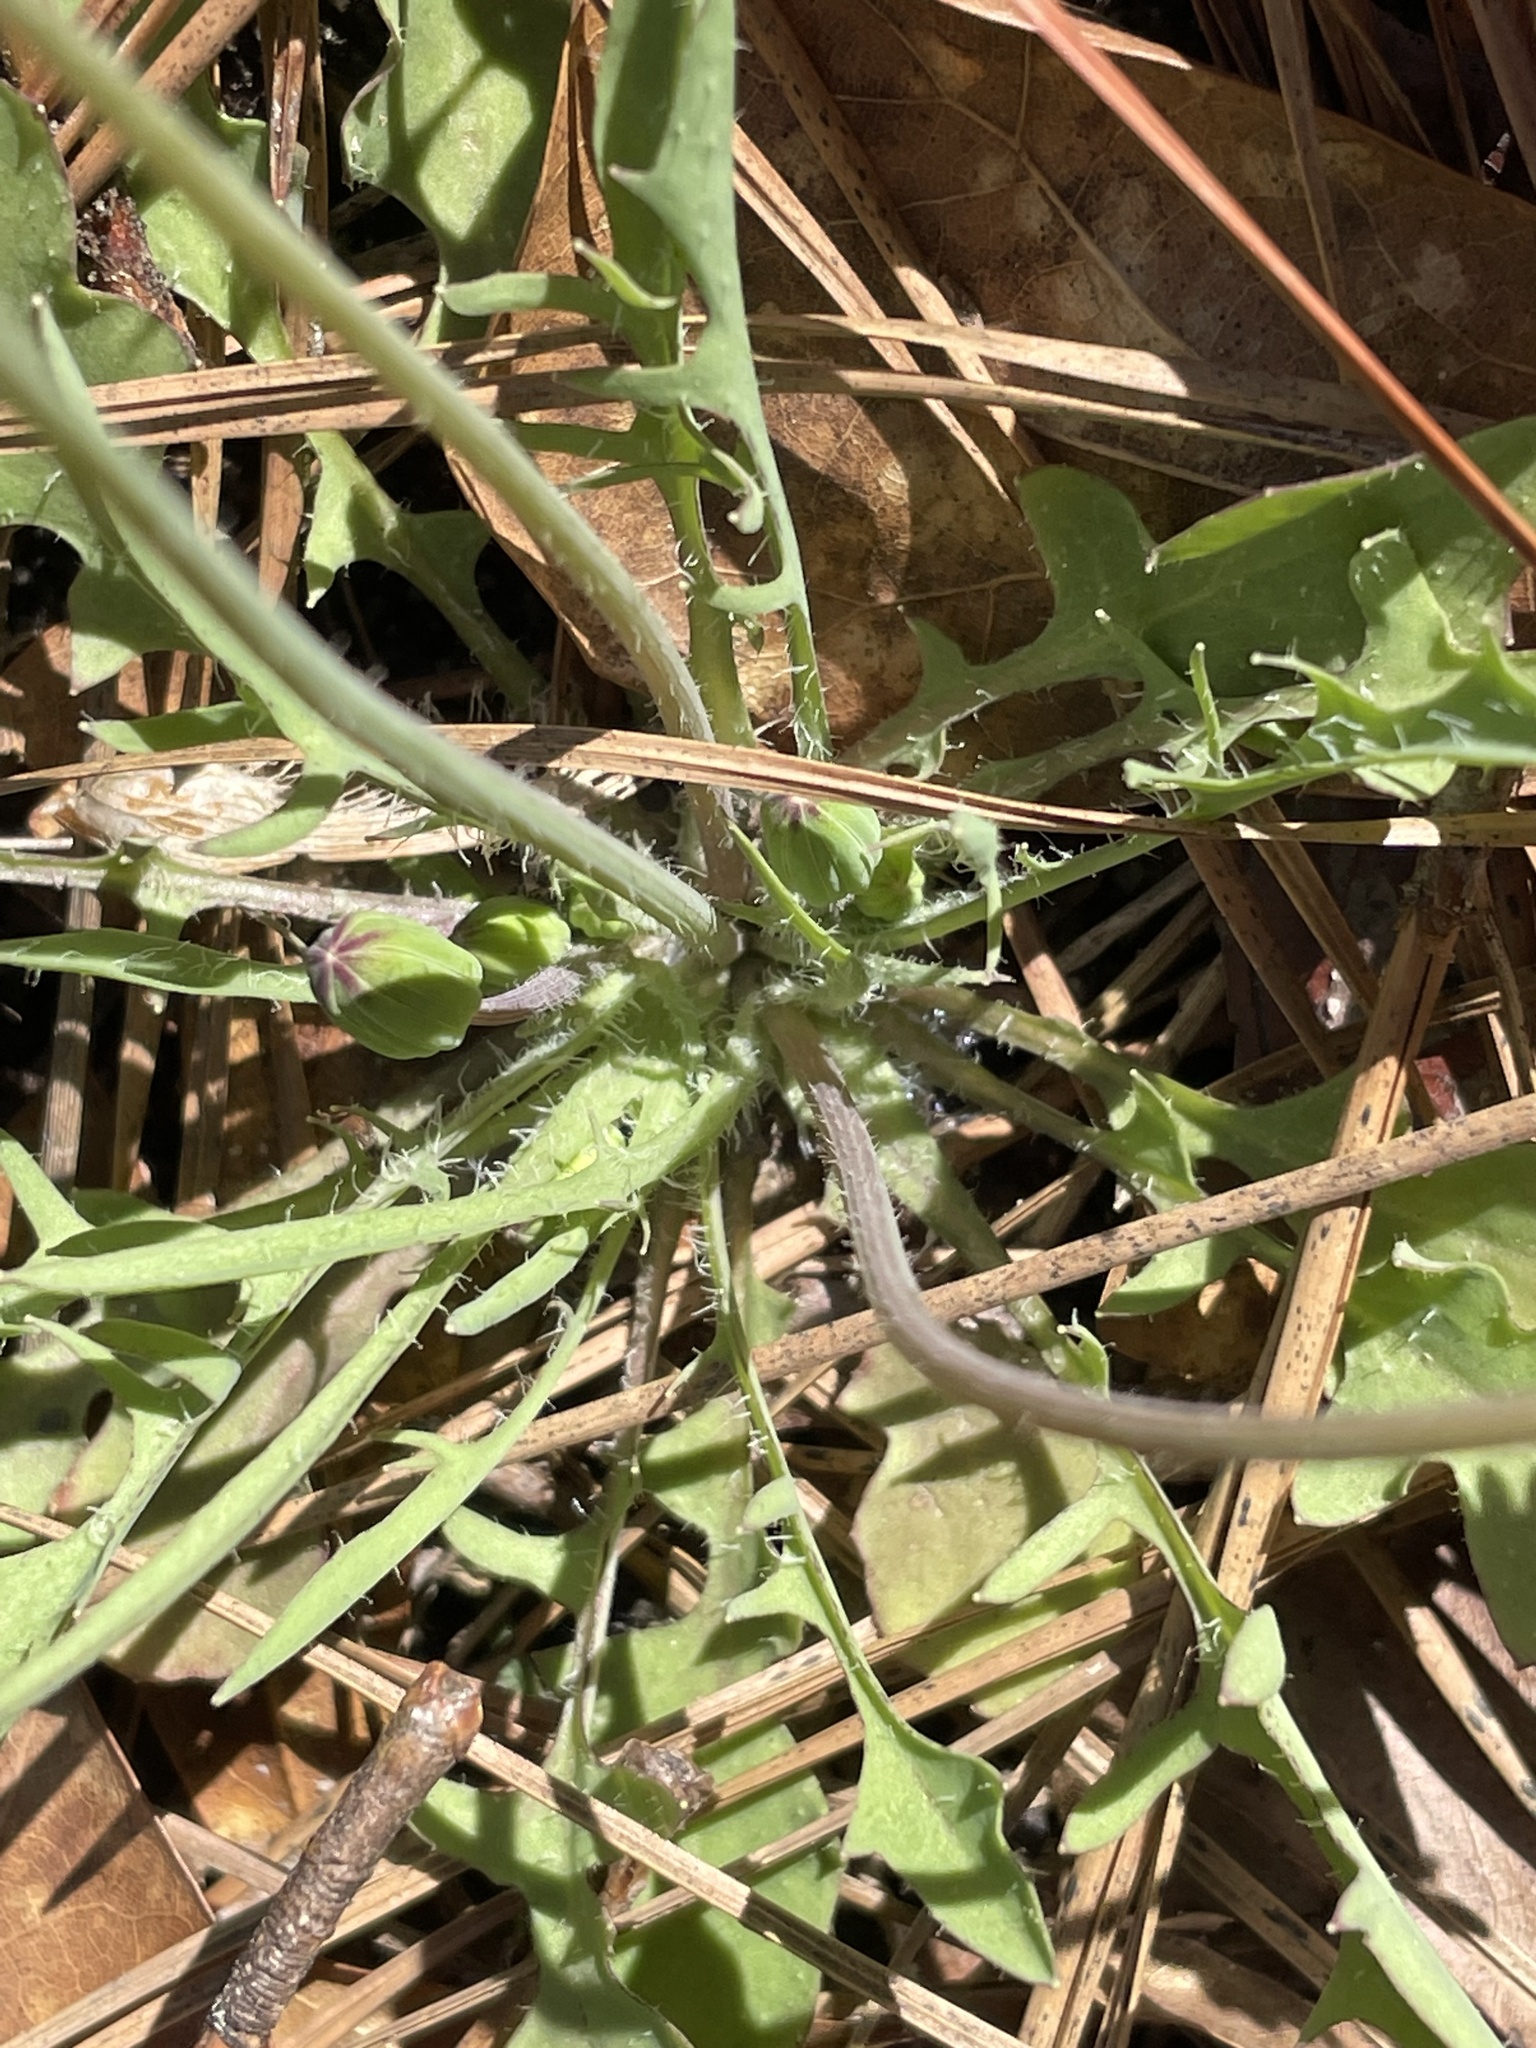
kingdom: Plantae
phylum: Tracheophyta
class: Magnoliopsida
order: Asterales
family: Asteraceae
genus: Krigia
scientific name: Krigia virginica
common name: Virginia dwarf-dandelion
